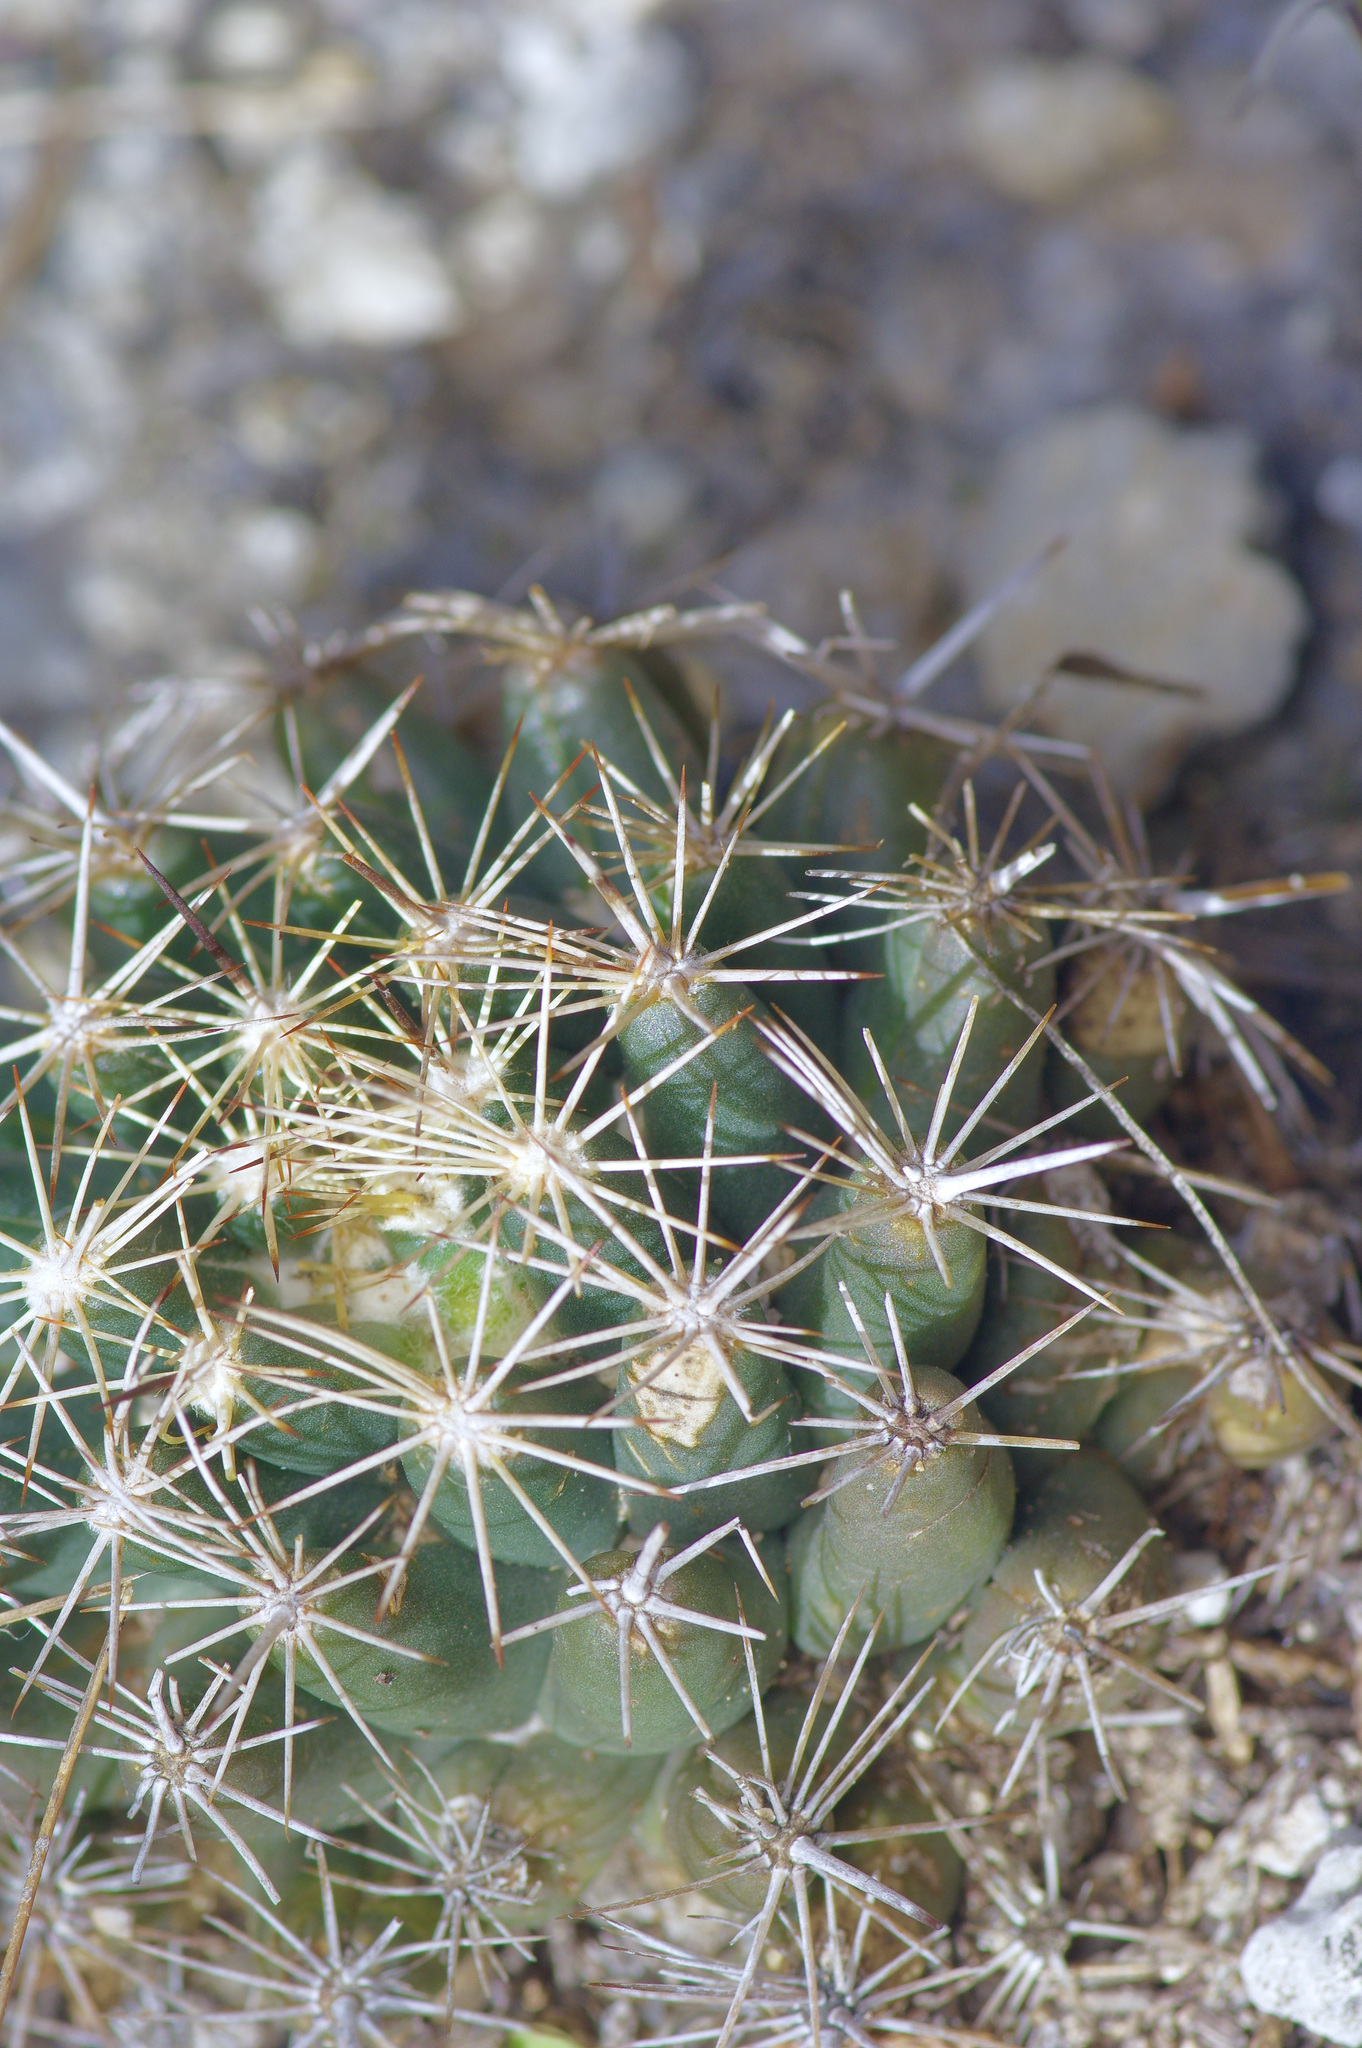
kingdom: Plantae
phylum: Tracheophyta
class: Magnoliopsida
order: Caryophyllales
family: Cactaceae
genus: Coryphantha
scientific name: Coryphantha sulcata
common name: Finger cactus
